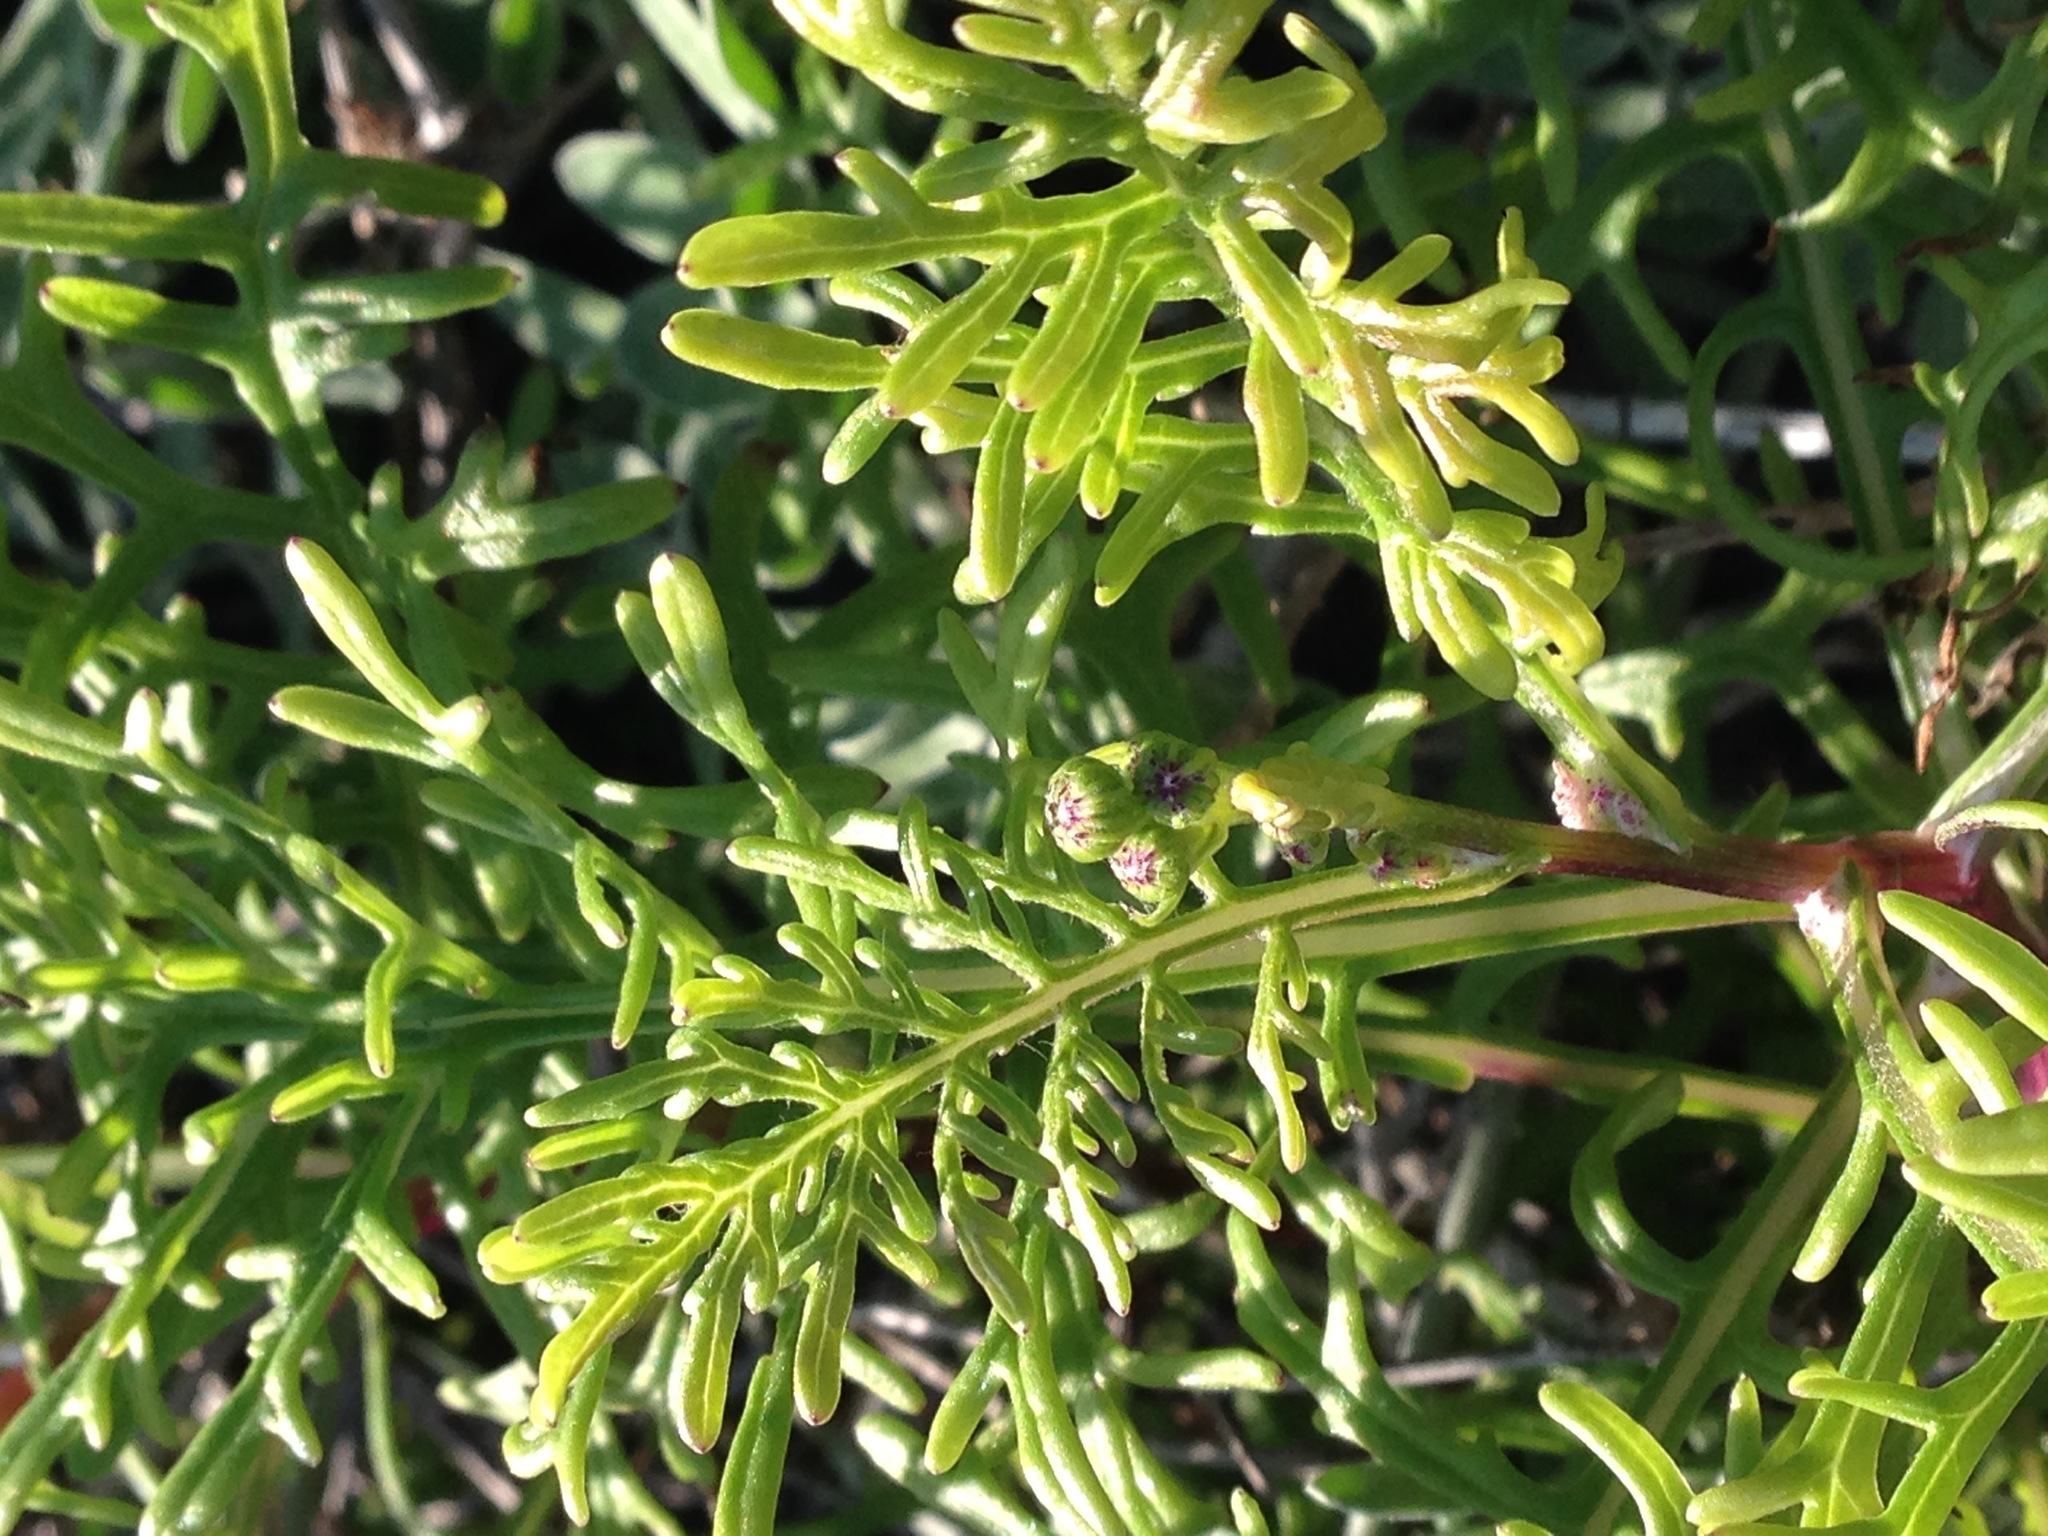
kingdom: Plantae
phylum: Tracheophyta
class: Magnoliopsida
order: Asterales
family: Asteraceae
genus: Senecio
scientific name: Senecio lyonii
